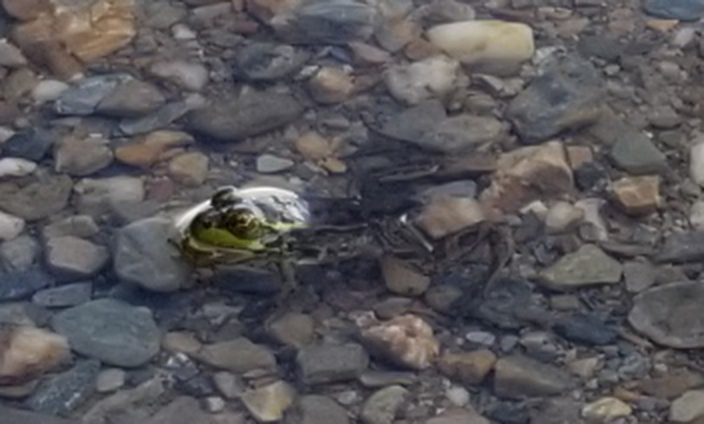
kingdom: Animalia
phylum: Chordata
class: Amphibia
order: Anura
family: Ranidae
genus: Lithobates
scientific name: Lithobates septentrionalis
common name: Mink frog
